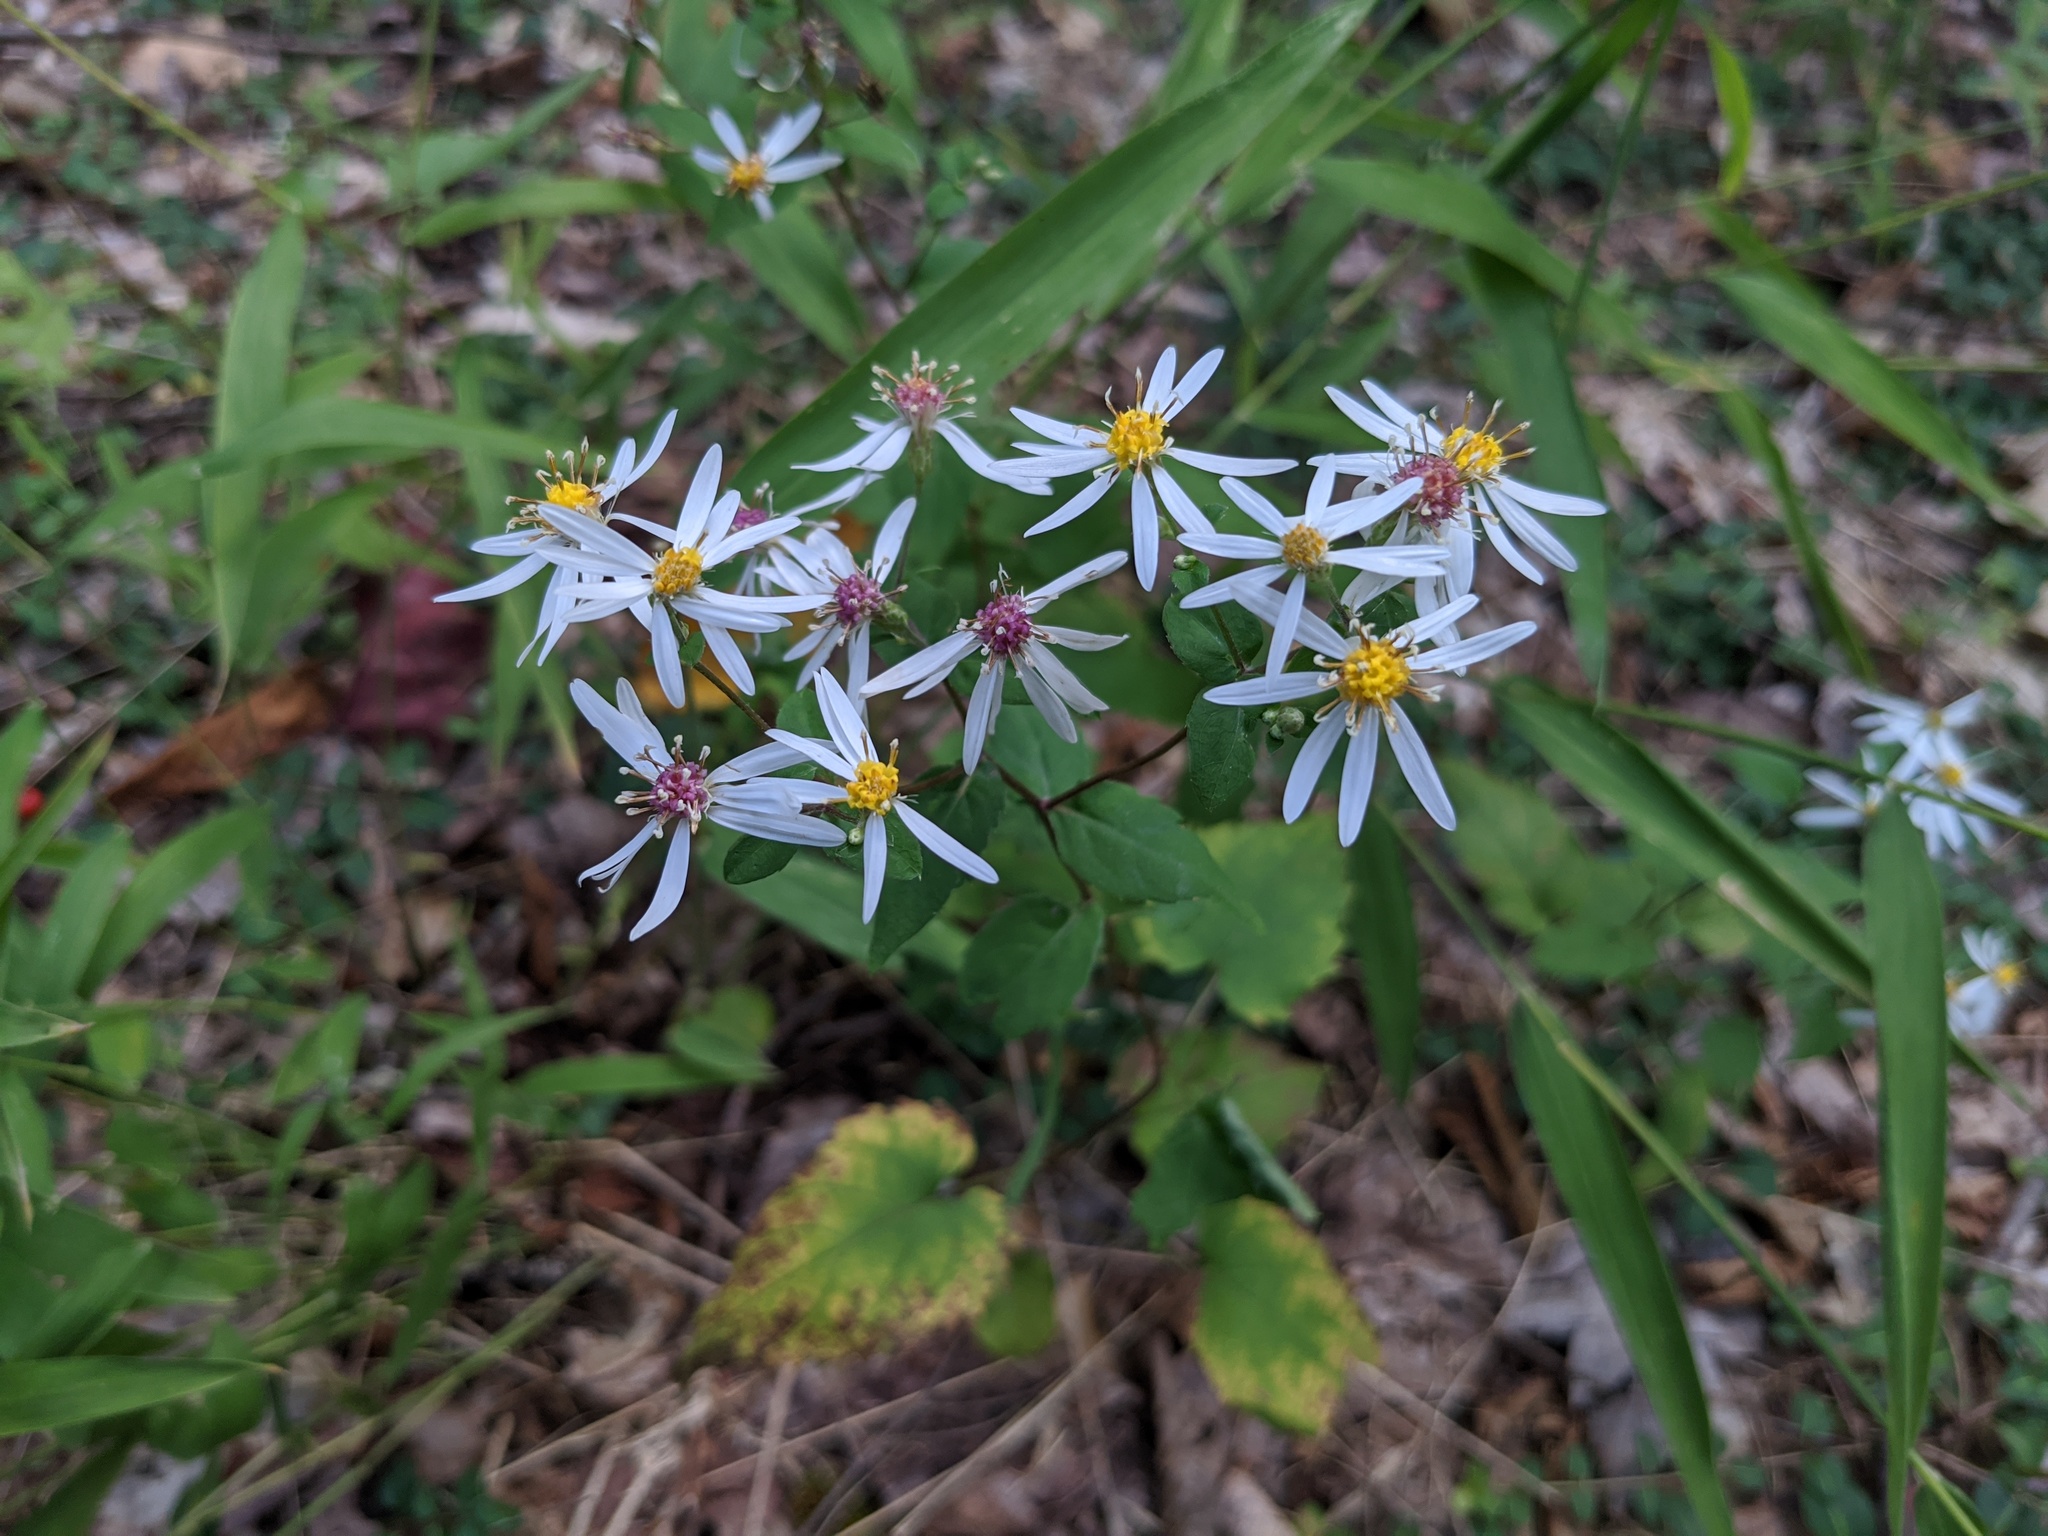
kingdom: Plantae
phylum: Tracheophyta
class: Magnoliopsida
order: Asterales
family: Asteraceae
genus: Eurybia
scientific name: Eurybia divaricata
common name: White wood aster
